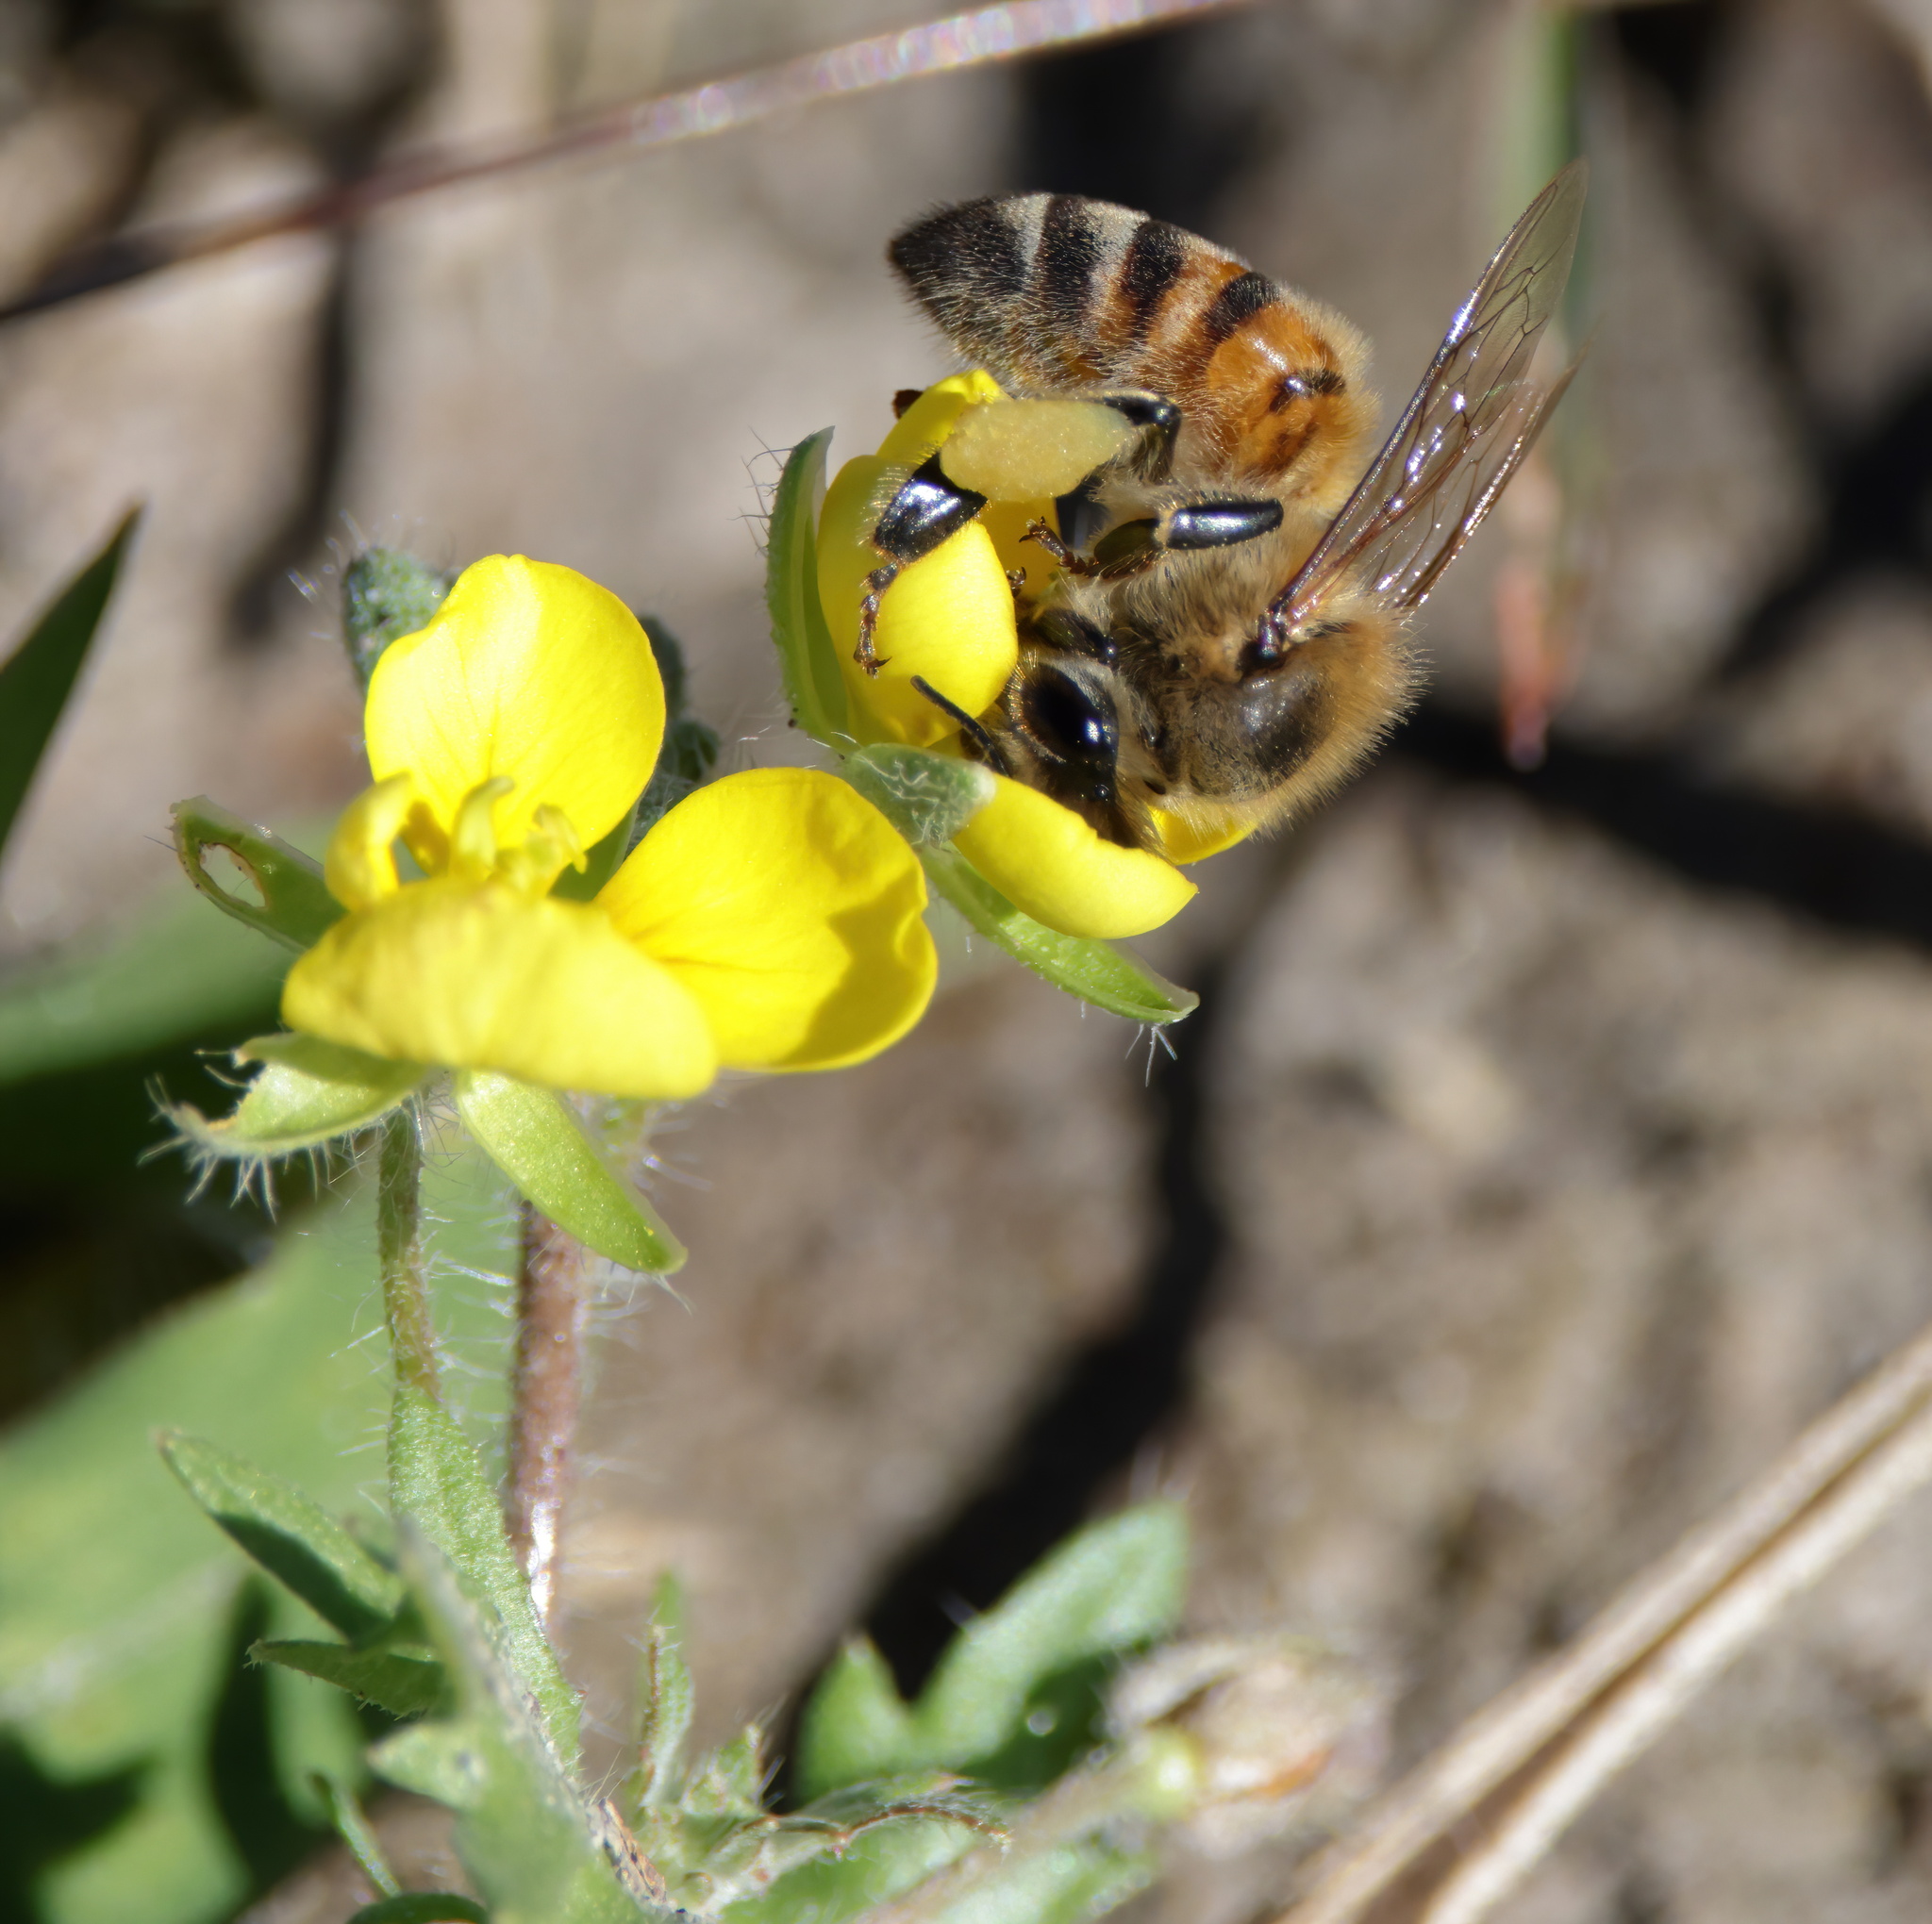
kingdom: Animalia
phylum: Arthropoda
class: Insecta
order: Hymenoptera
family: Apidae
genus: Apis
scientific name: Apis mellifera
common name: Honey bee
